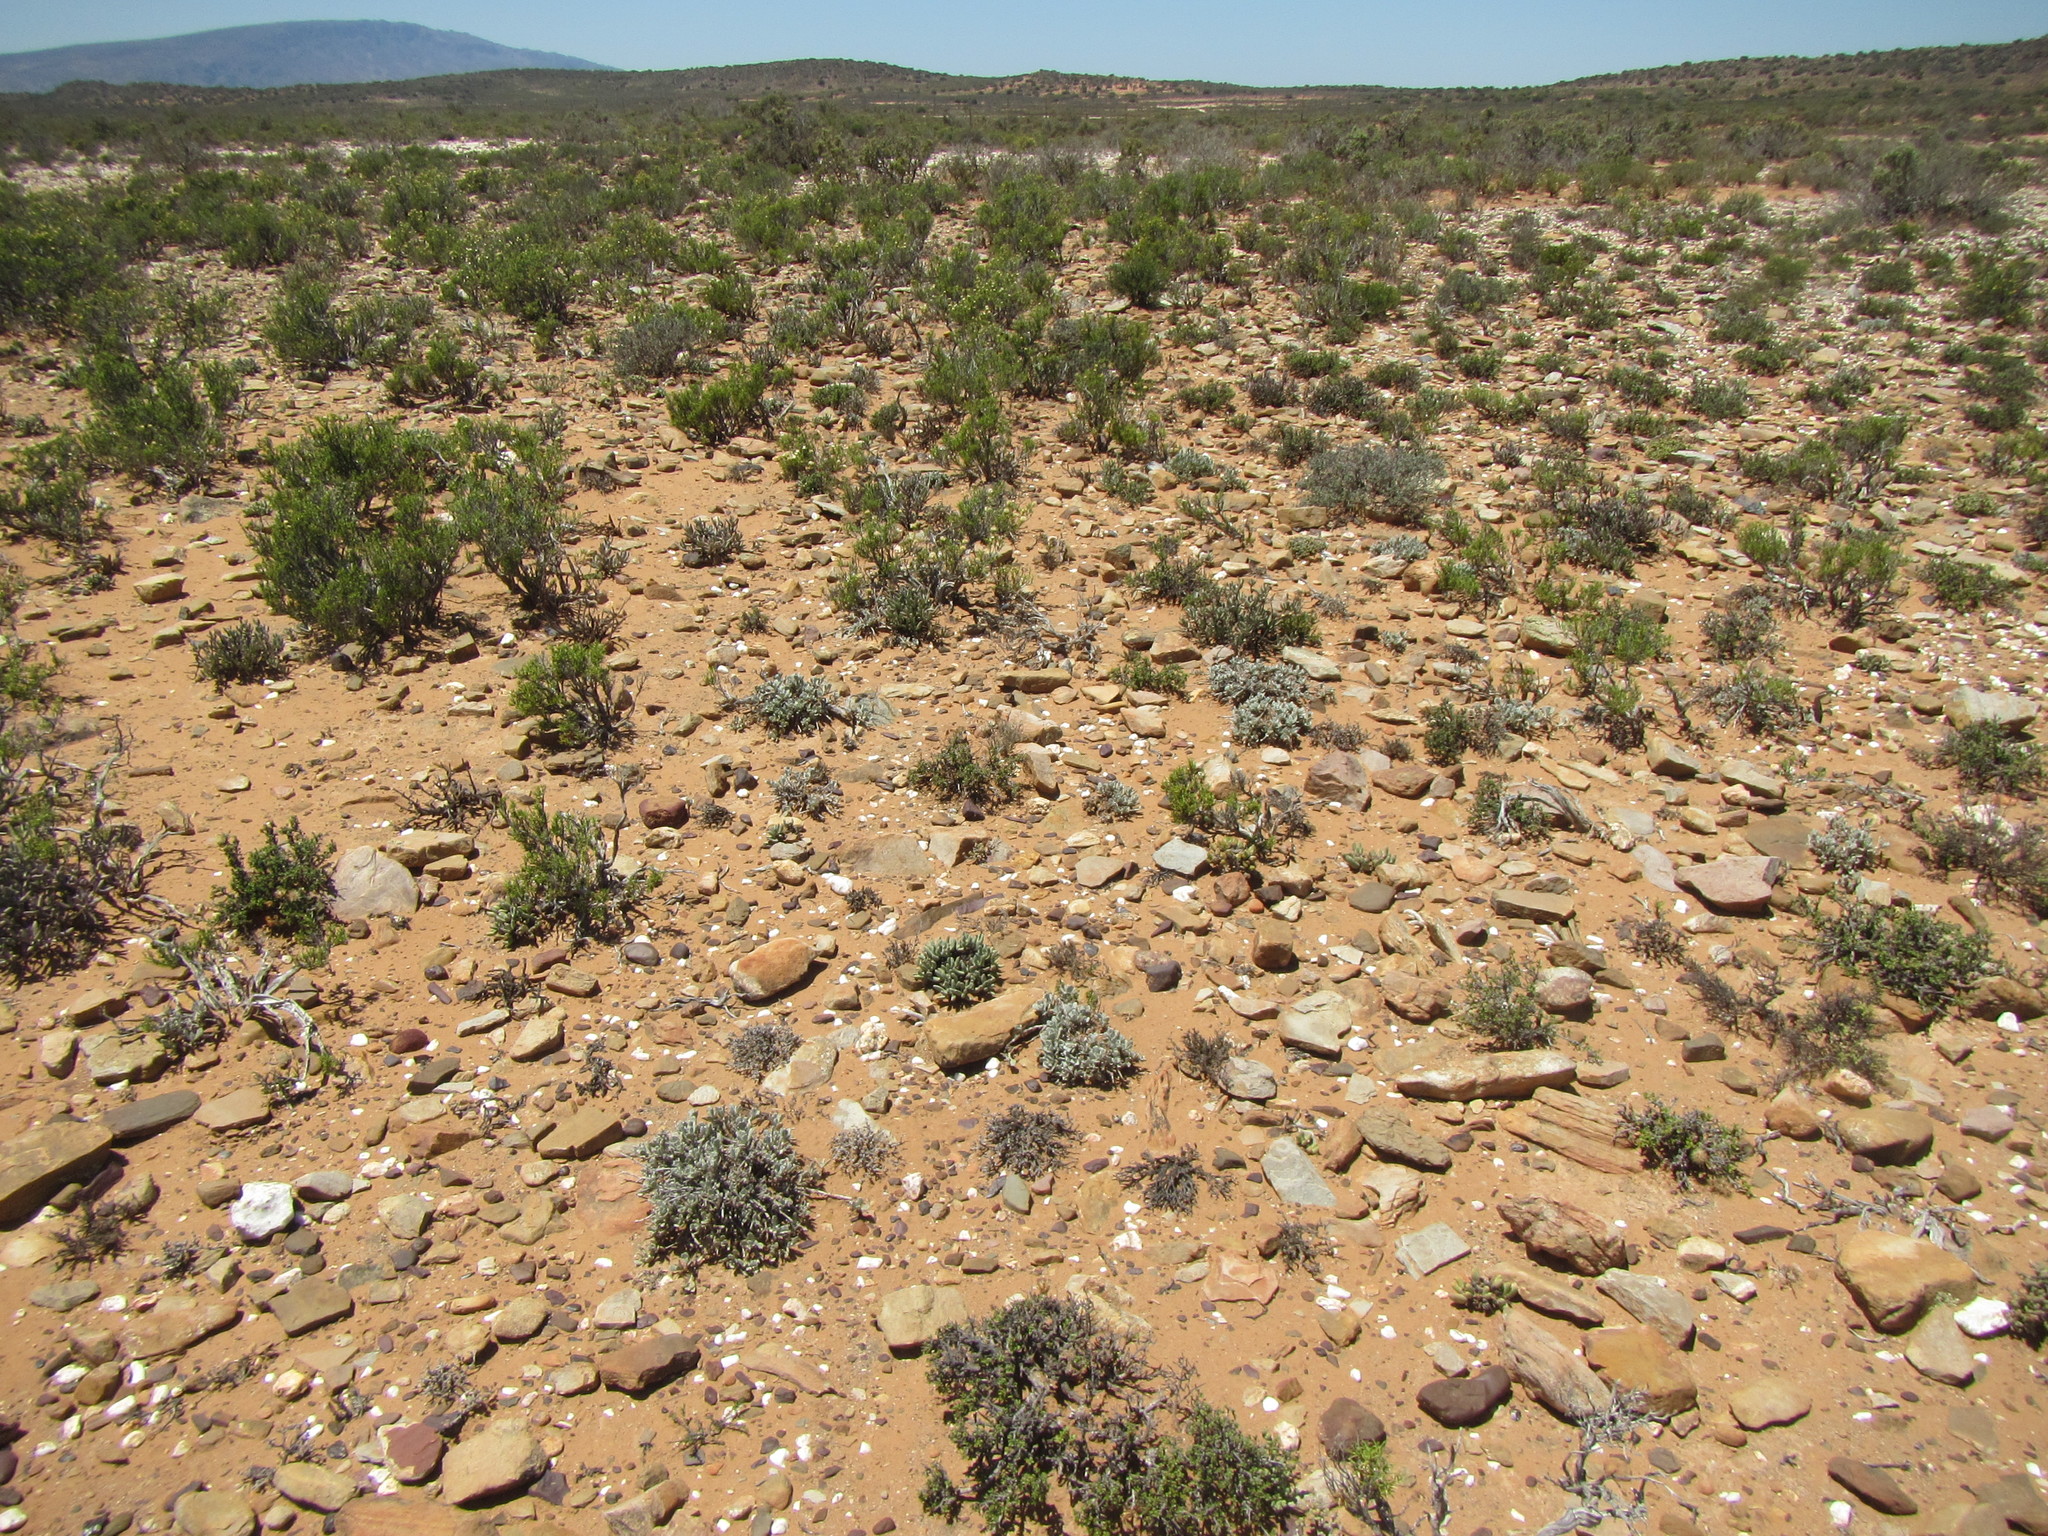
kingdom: Plantae
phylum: Tracheophyta
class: Magnoliopsida
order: Asterales
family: Asteraceae
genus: Berkheya
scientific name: Berkheya cuneata
